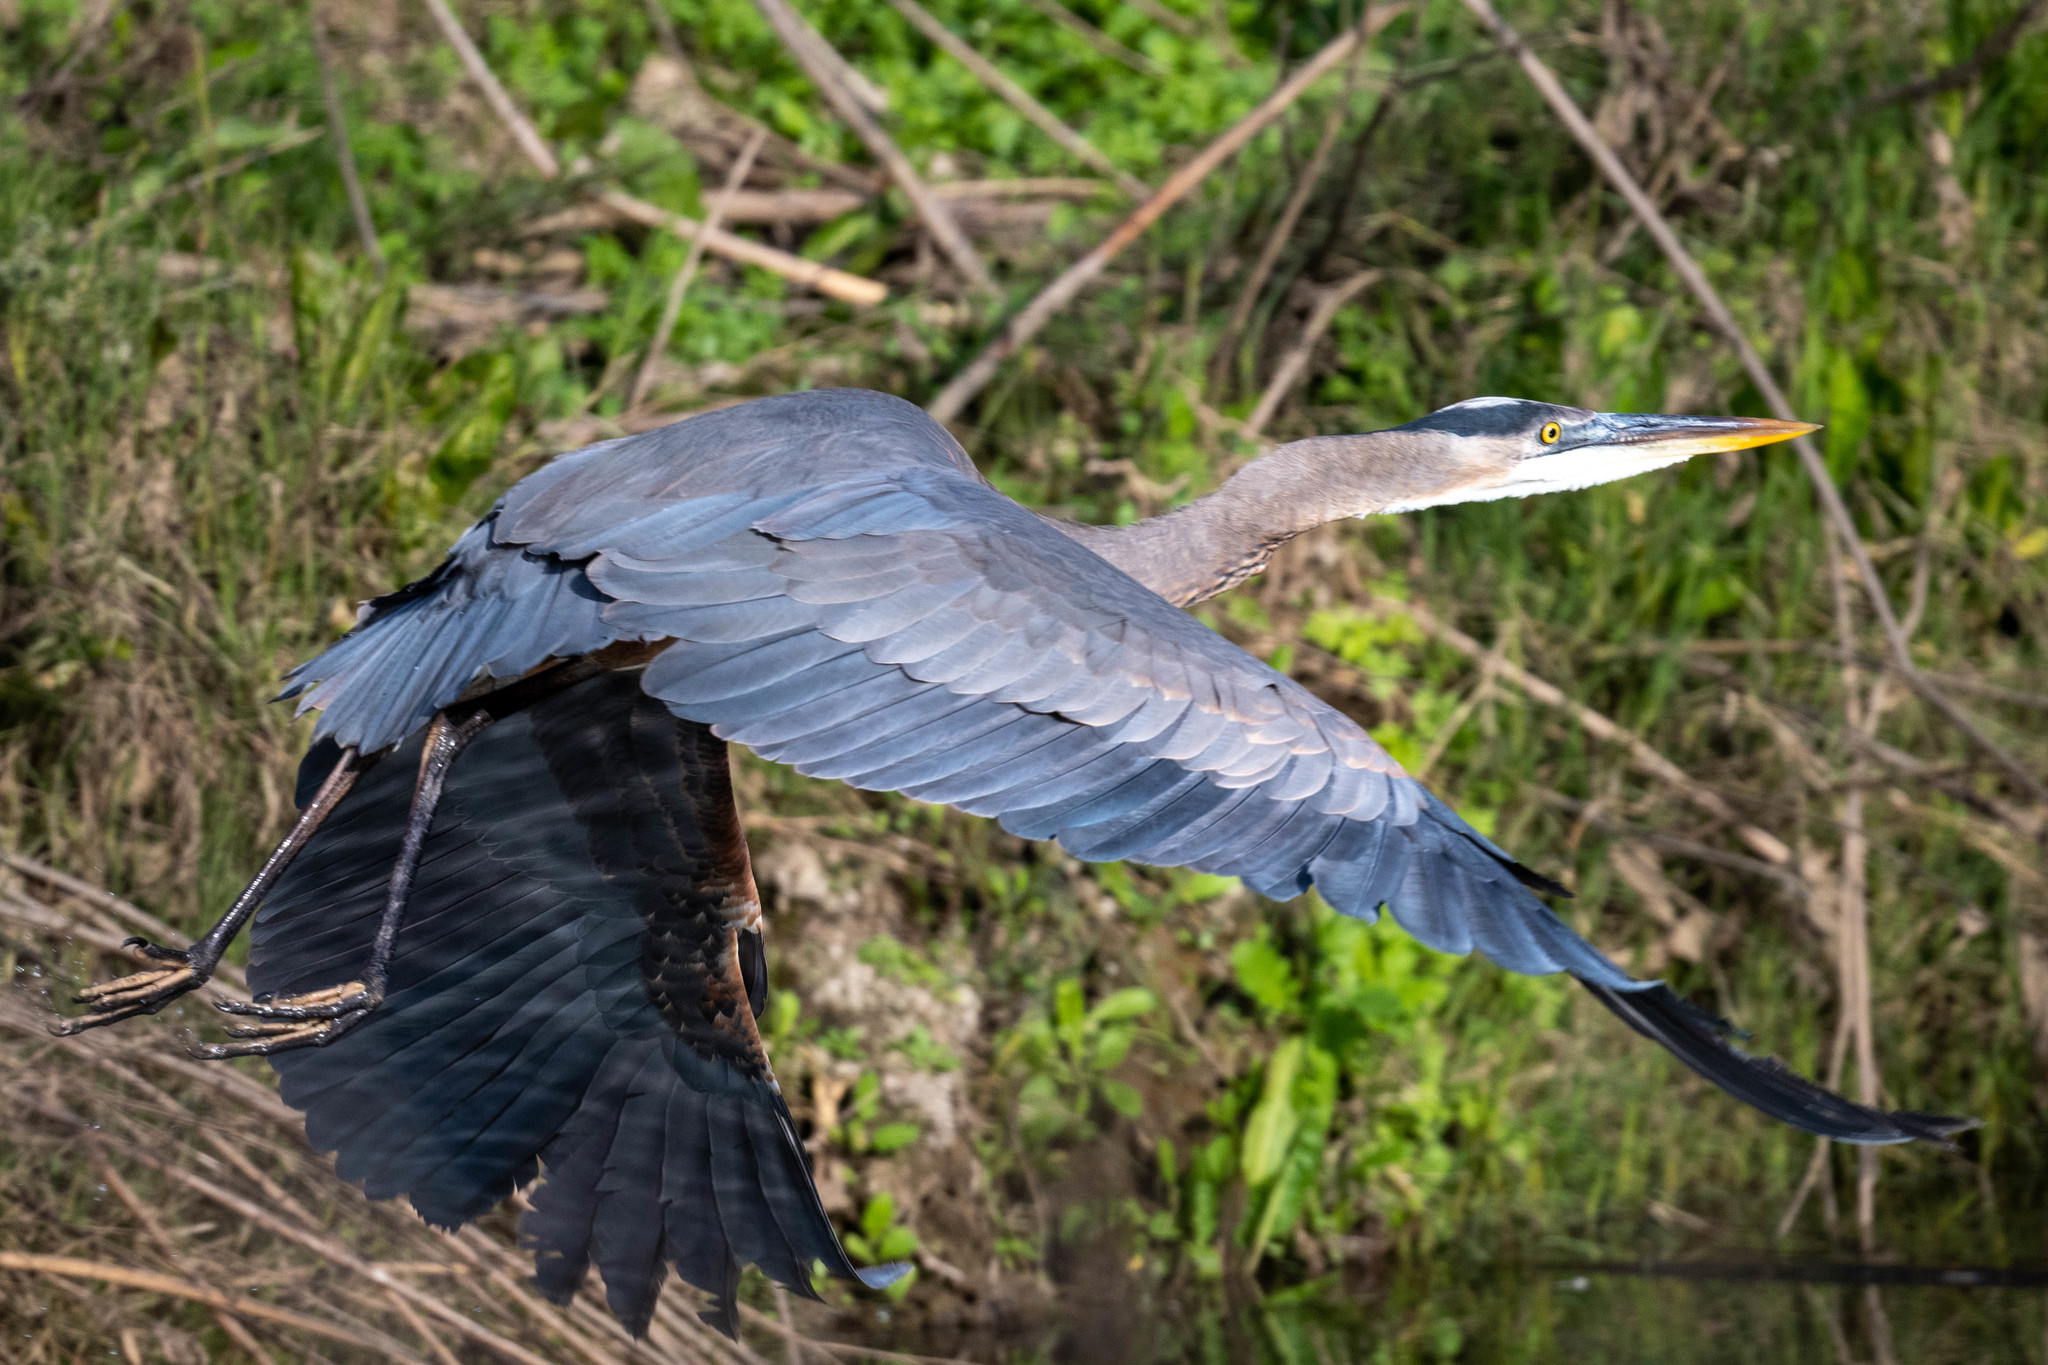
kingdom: Animalia
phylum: Chordata
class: Aves
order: Pelecaniformes
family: Ardeidae
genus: Ardea
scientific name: Ardea herodias
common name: Great blue heron
